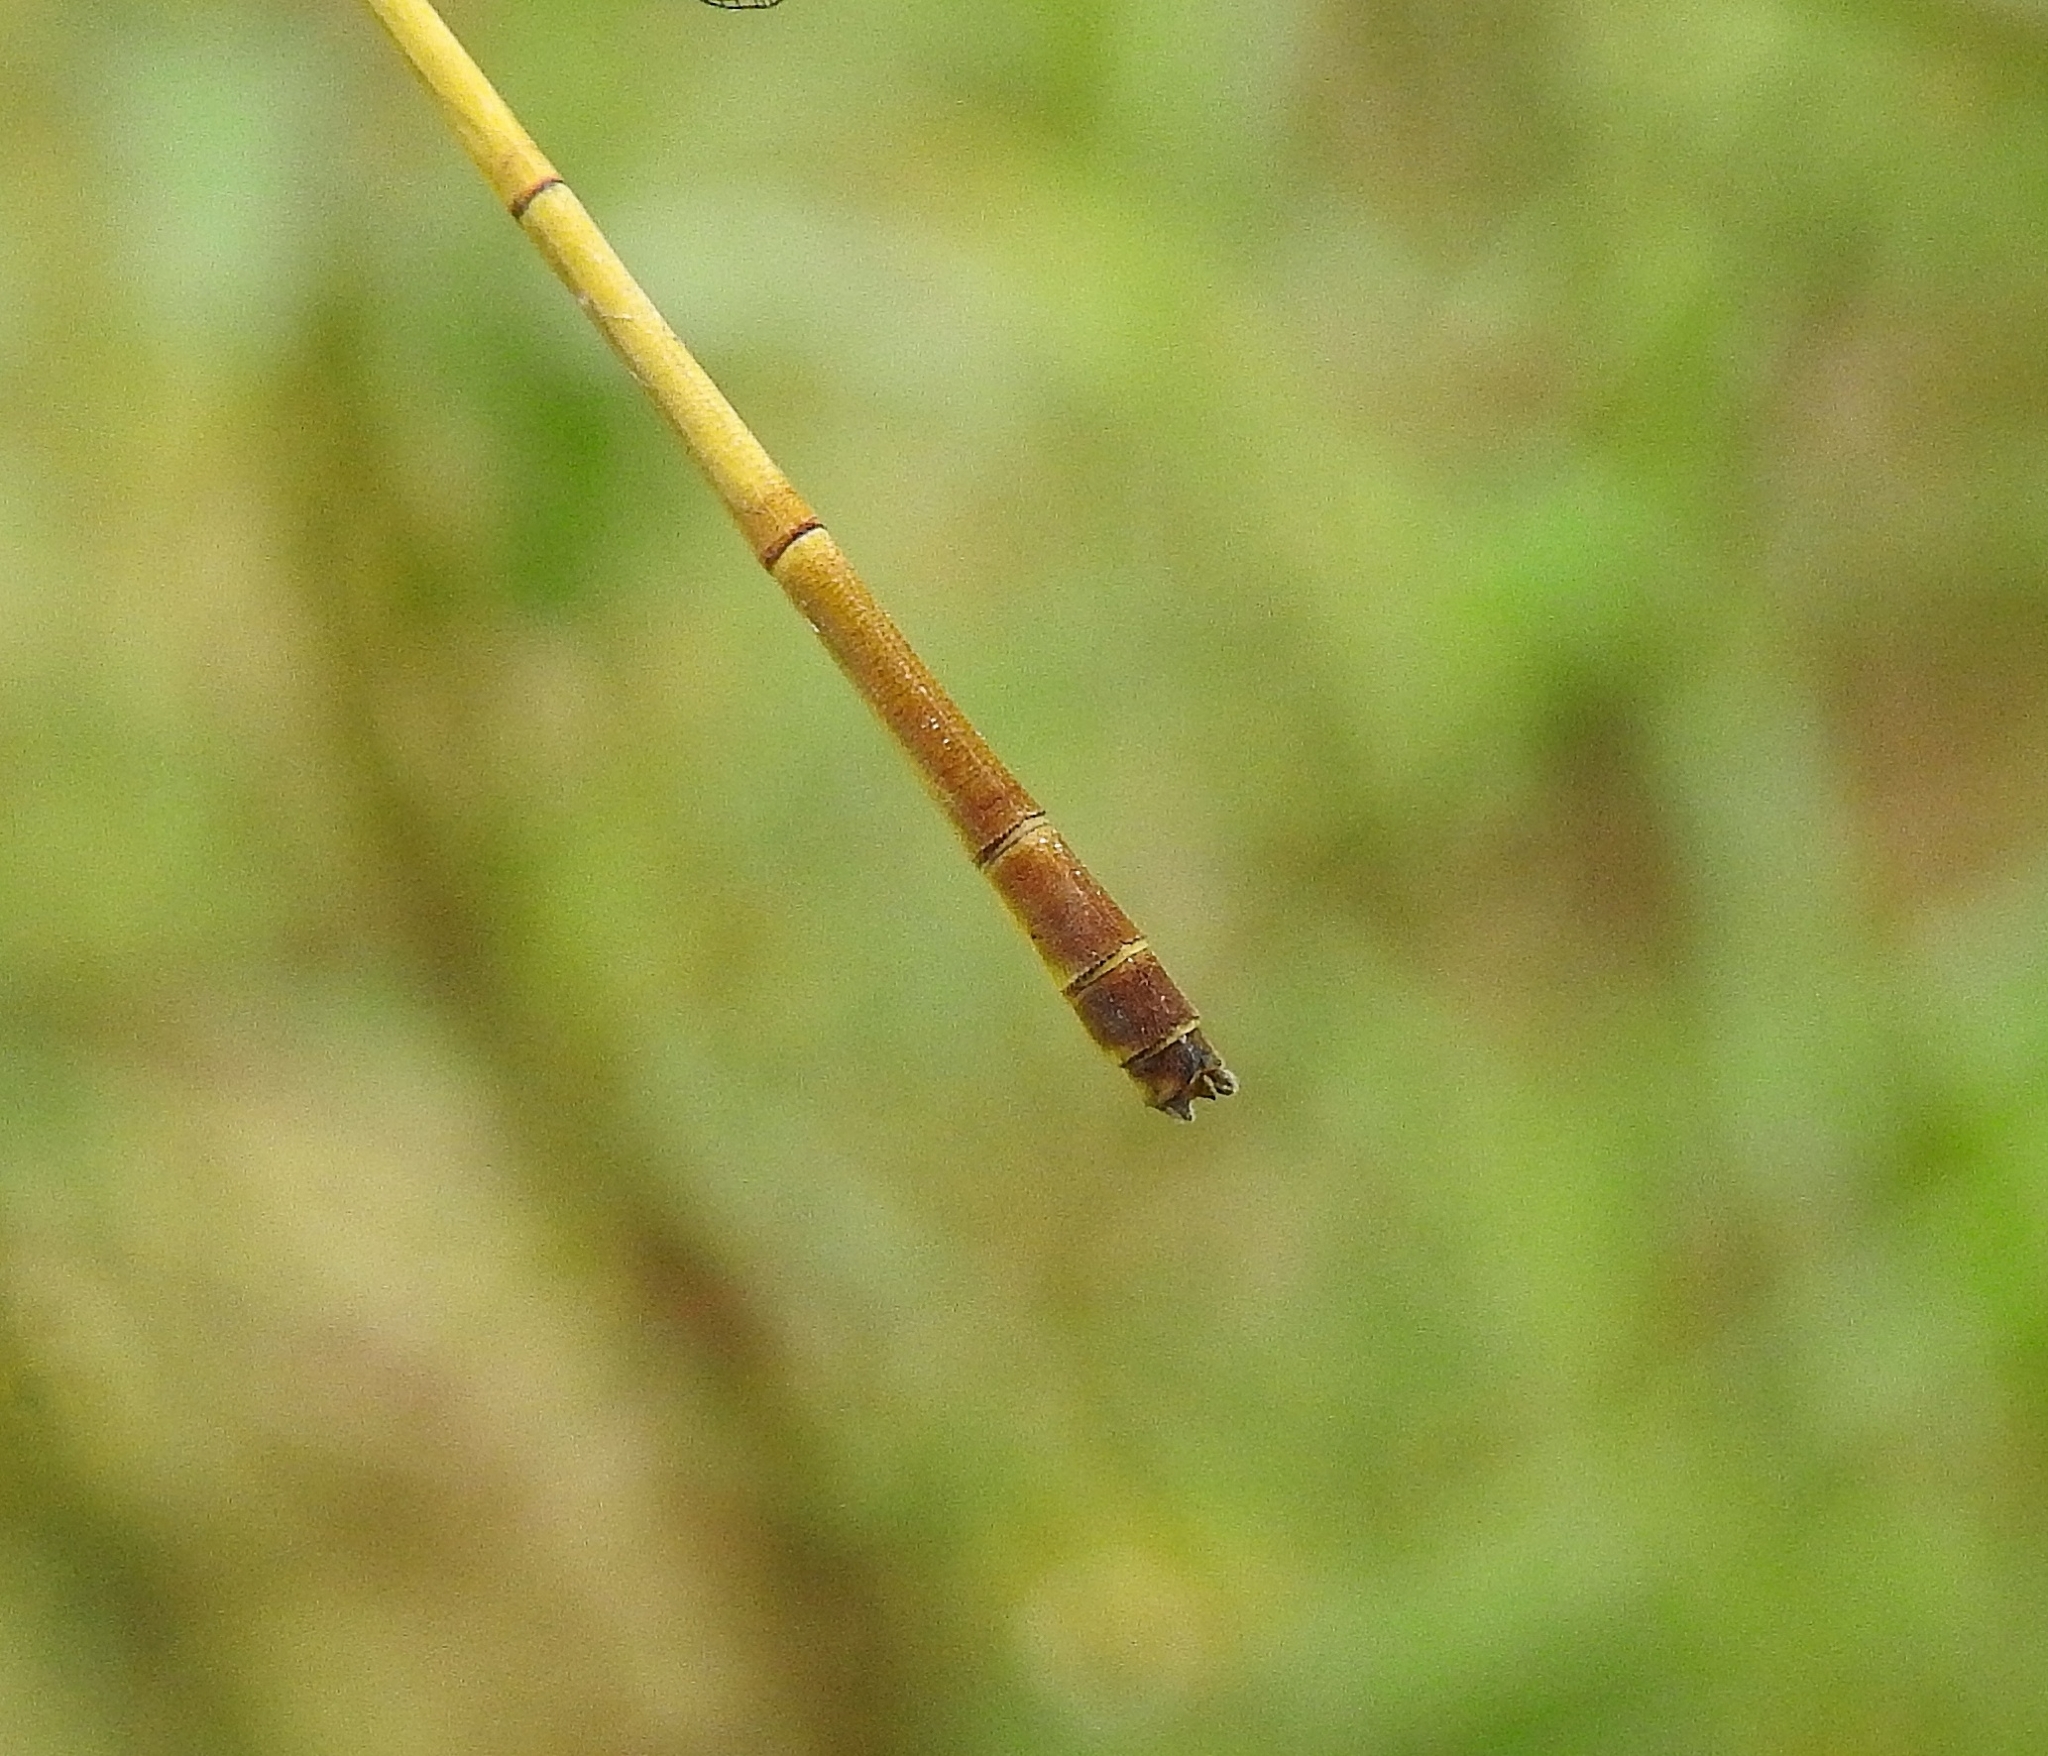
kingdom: Animalia
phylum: Arthropoda
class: Insecta
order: Odonata
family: Coenagrionidae
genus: Ceriagrion
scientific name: Ceriagrion chromothorax
